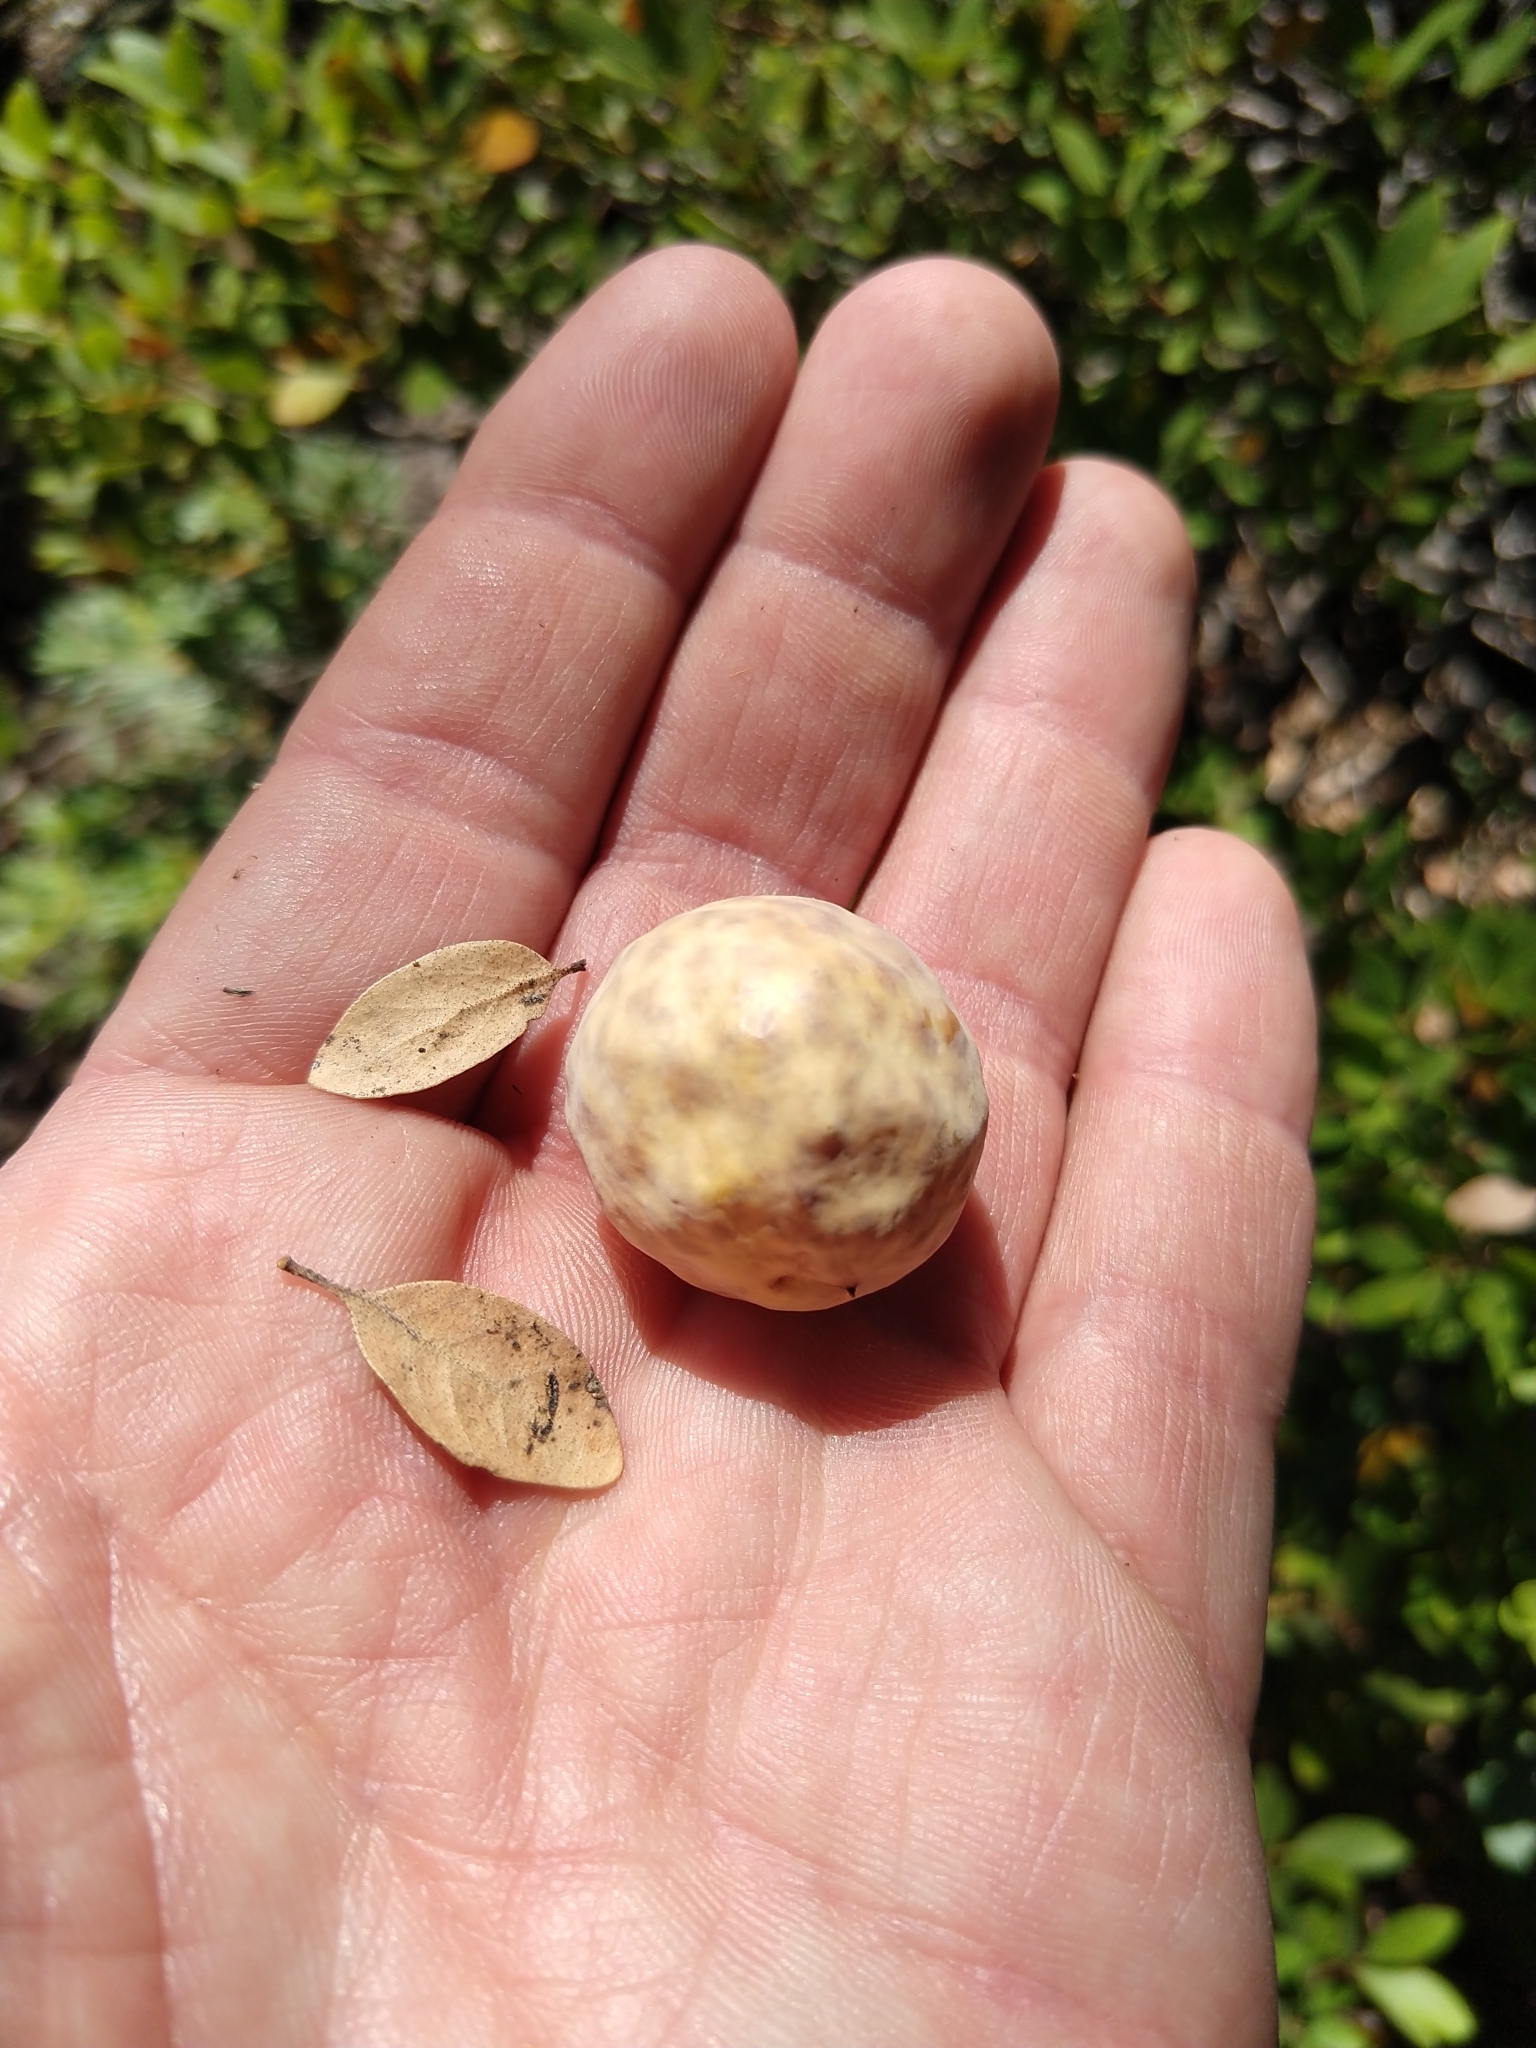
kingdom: Animalia
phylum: Arthropoda
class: Insecta
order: Hymenoptera
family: Cynipidae
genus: Andricus
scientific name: Andricus
